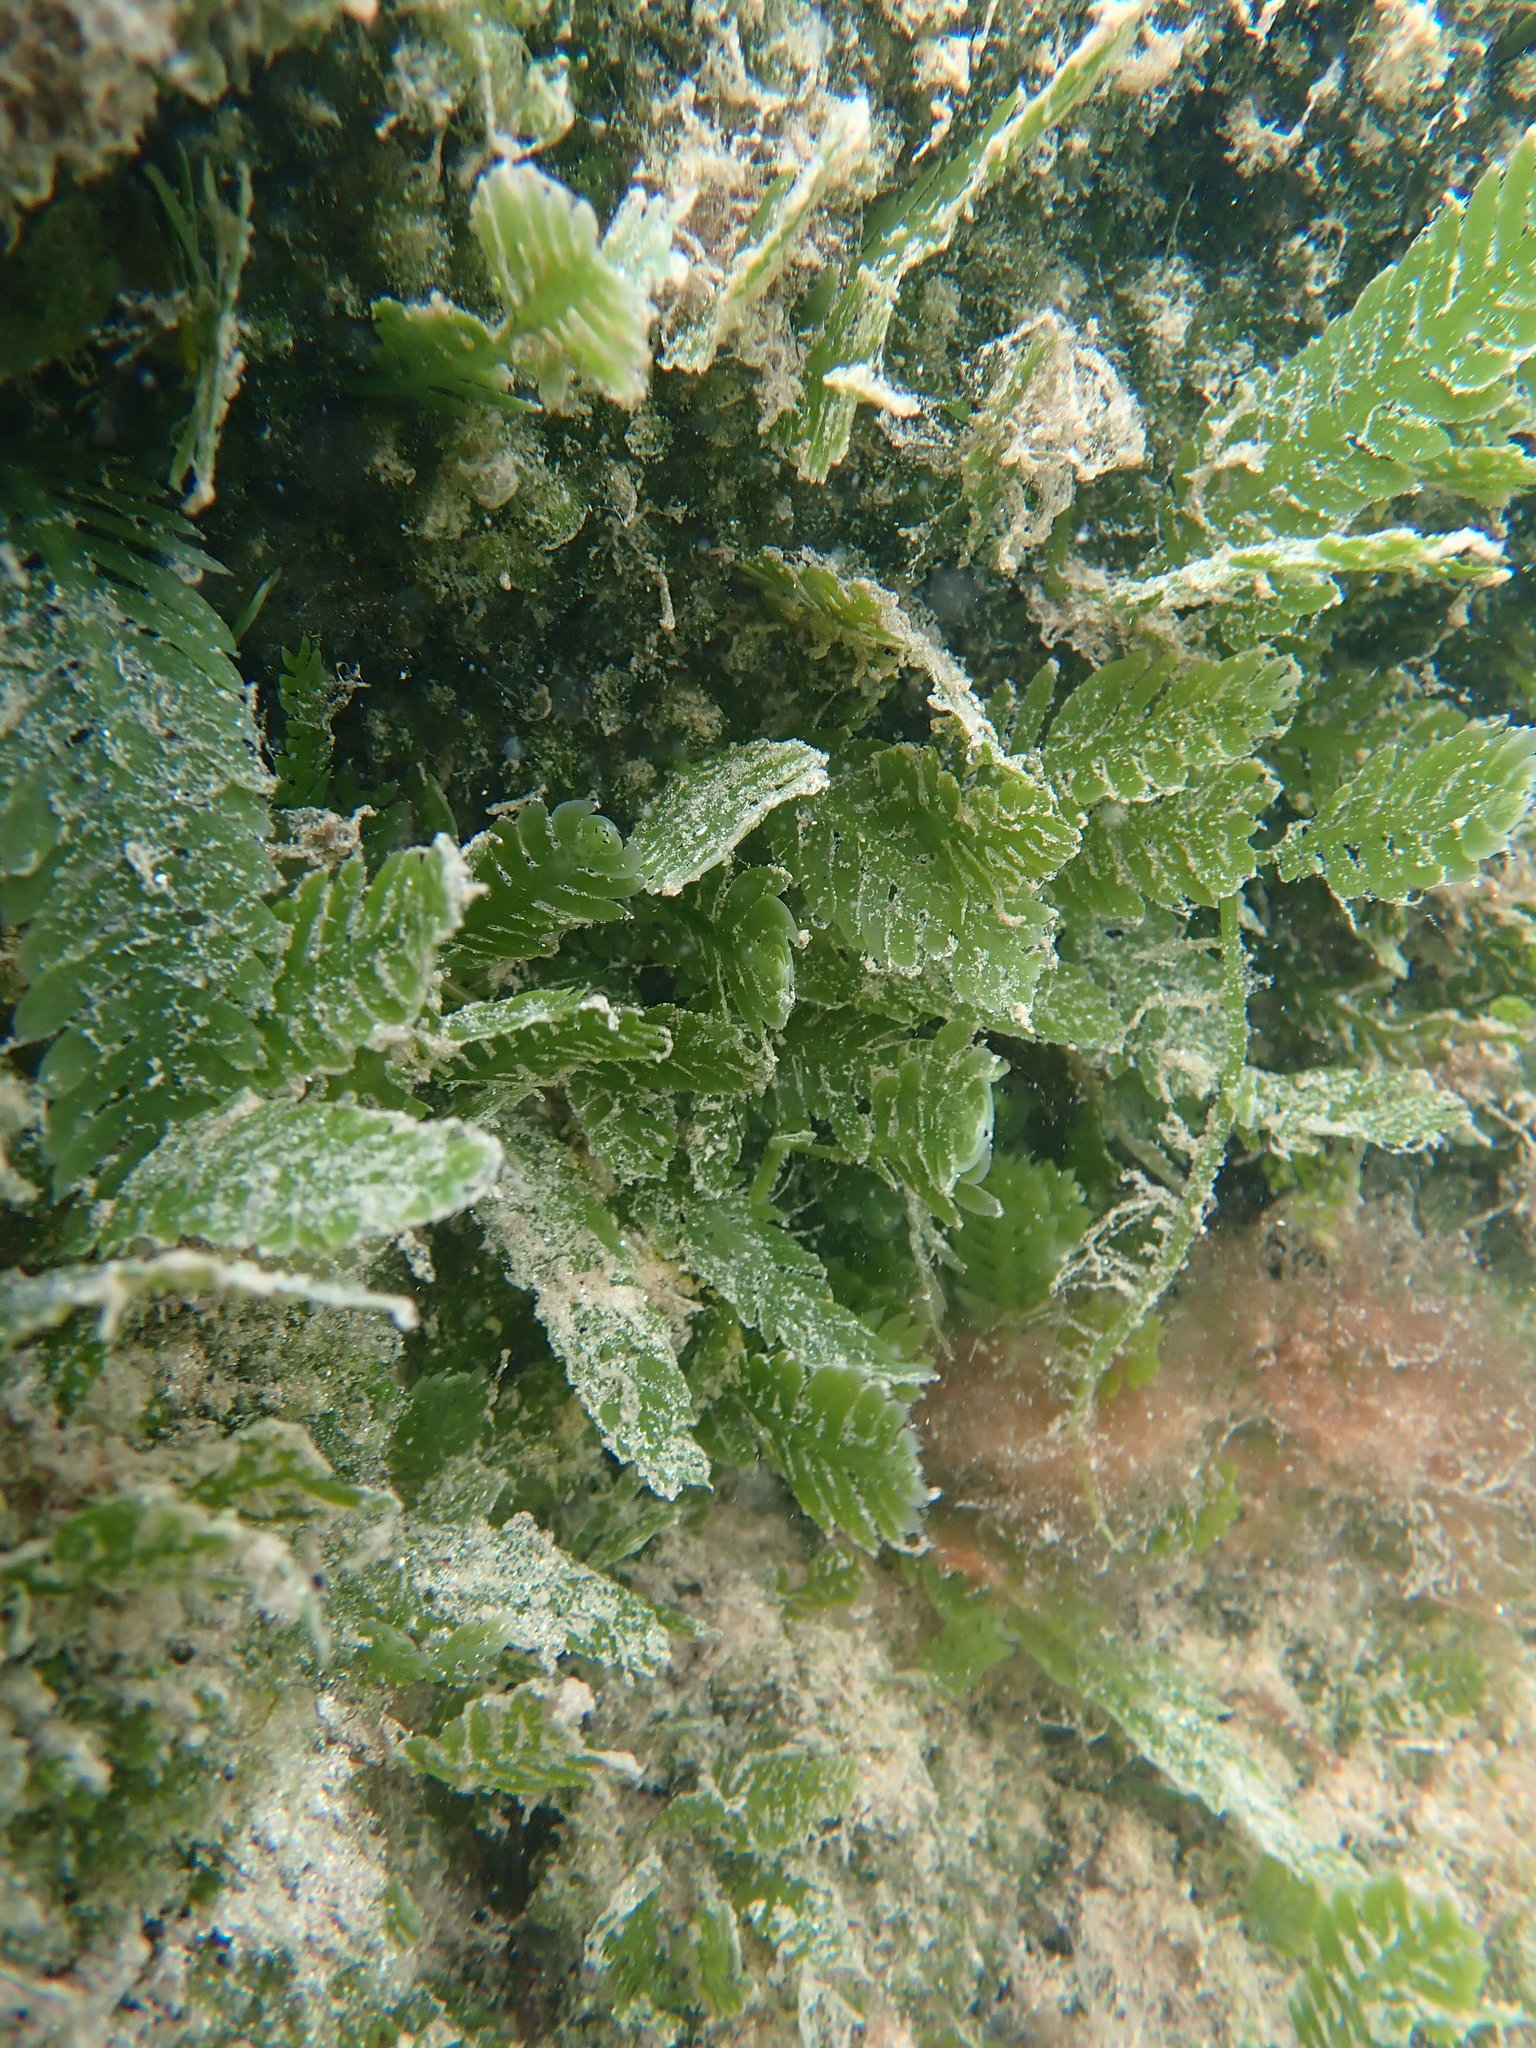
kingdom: Plantae
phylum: Chlorophyta
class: Ulvophyceae
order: Bryopsidales
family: Caulerpaceae
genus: Caulerpa
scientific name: Caulerpa mexicana
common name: Flat green feather algae
